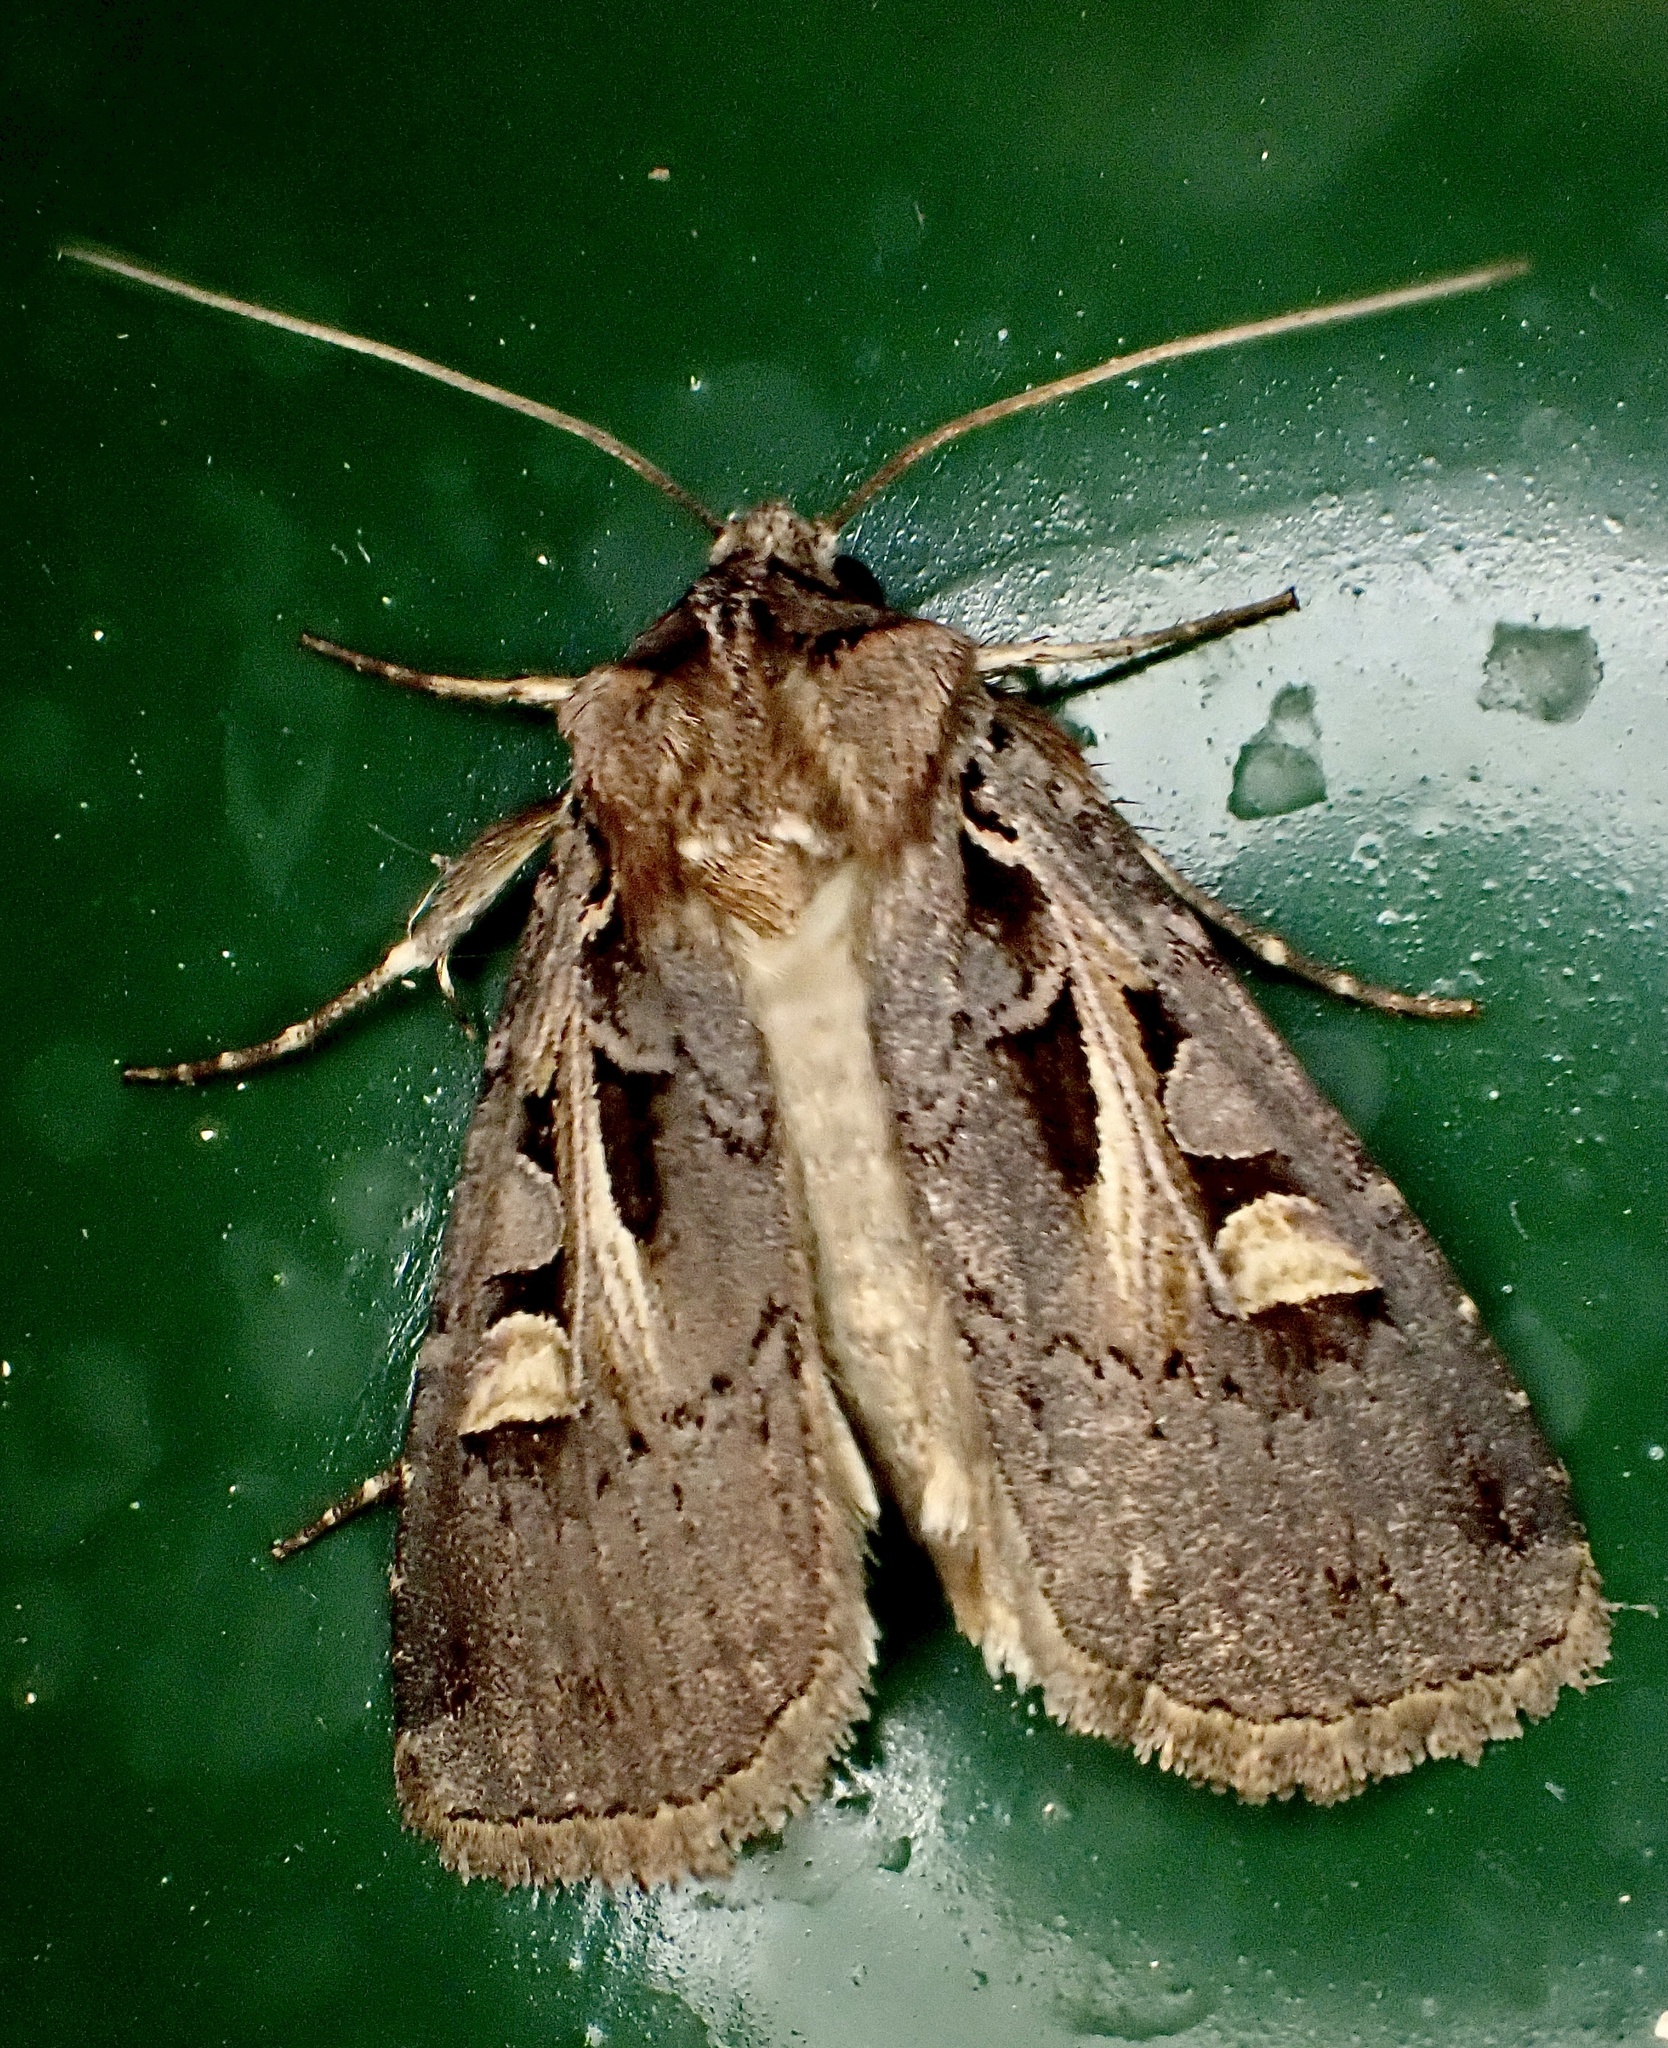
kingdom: Animalia
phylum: Arthropoda
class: Insecta
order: Lepidoptera
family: Noctuidae
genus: Feltia
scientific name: Feltia herilis
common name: Master's dart
